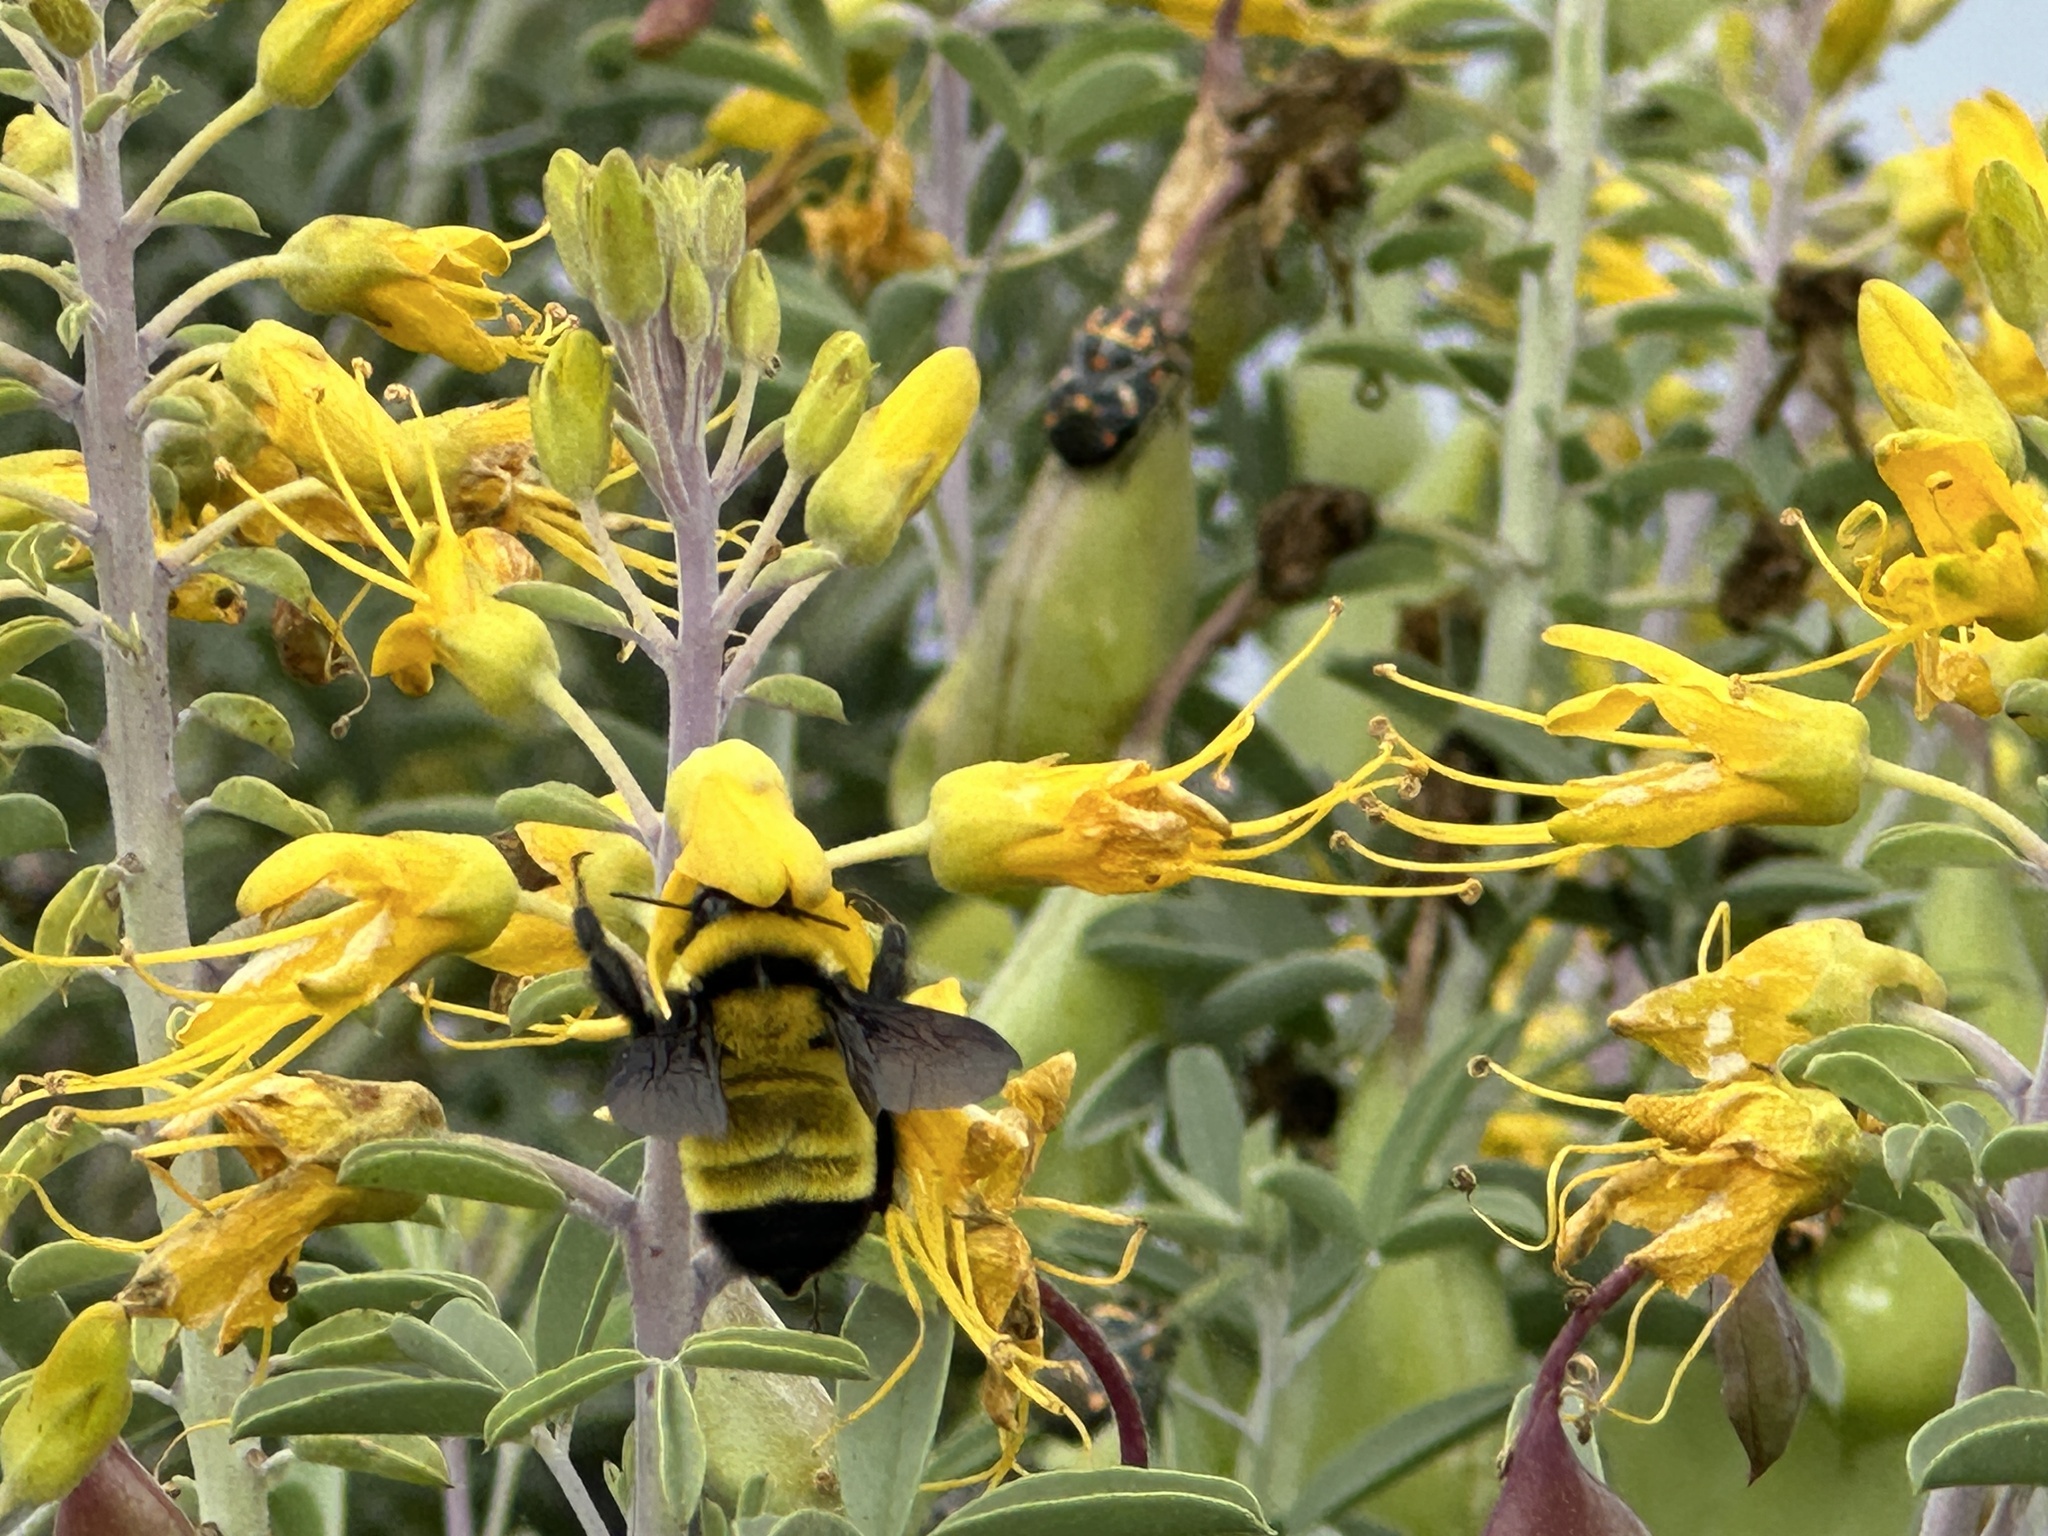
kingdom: Animalia
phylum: Arthropoda
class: Insecta
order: Hymenoptera
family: Apidae
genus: Bombus
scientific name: Bombus sonorus
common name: Sonoran bumble bee
